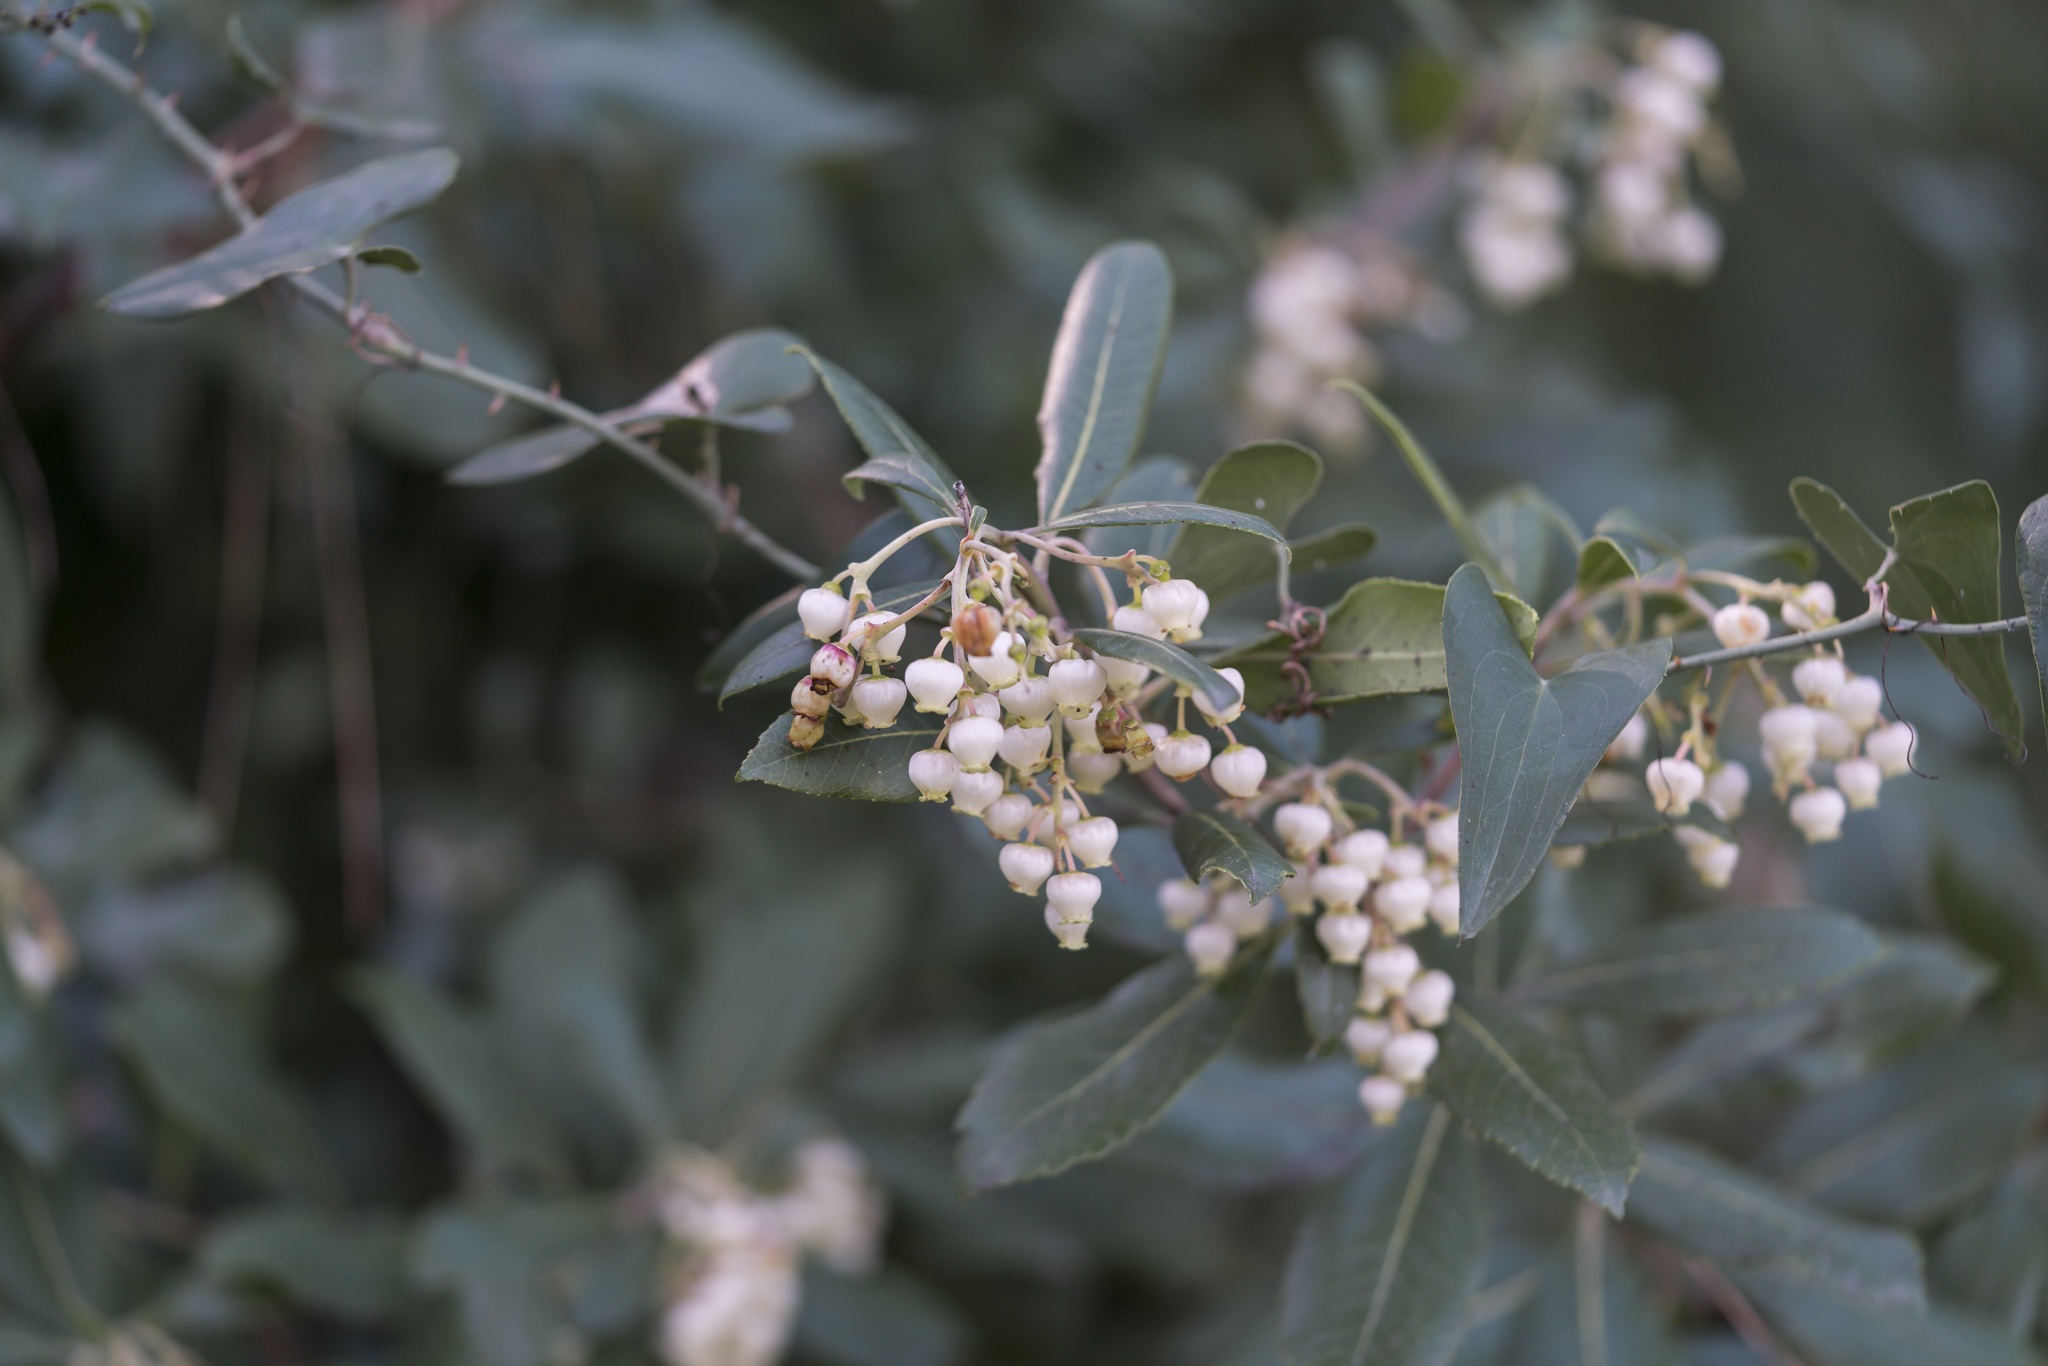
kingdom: Plantae
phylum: Tracheophyta
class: Magnoliopsida
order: Ericales
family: Ericaceae
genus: Arbutus
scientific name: Arbutus andrachnoides
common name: Hybrid strawberry-tree
